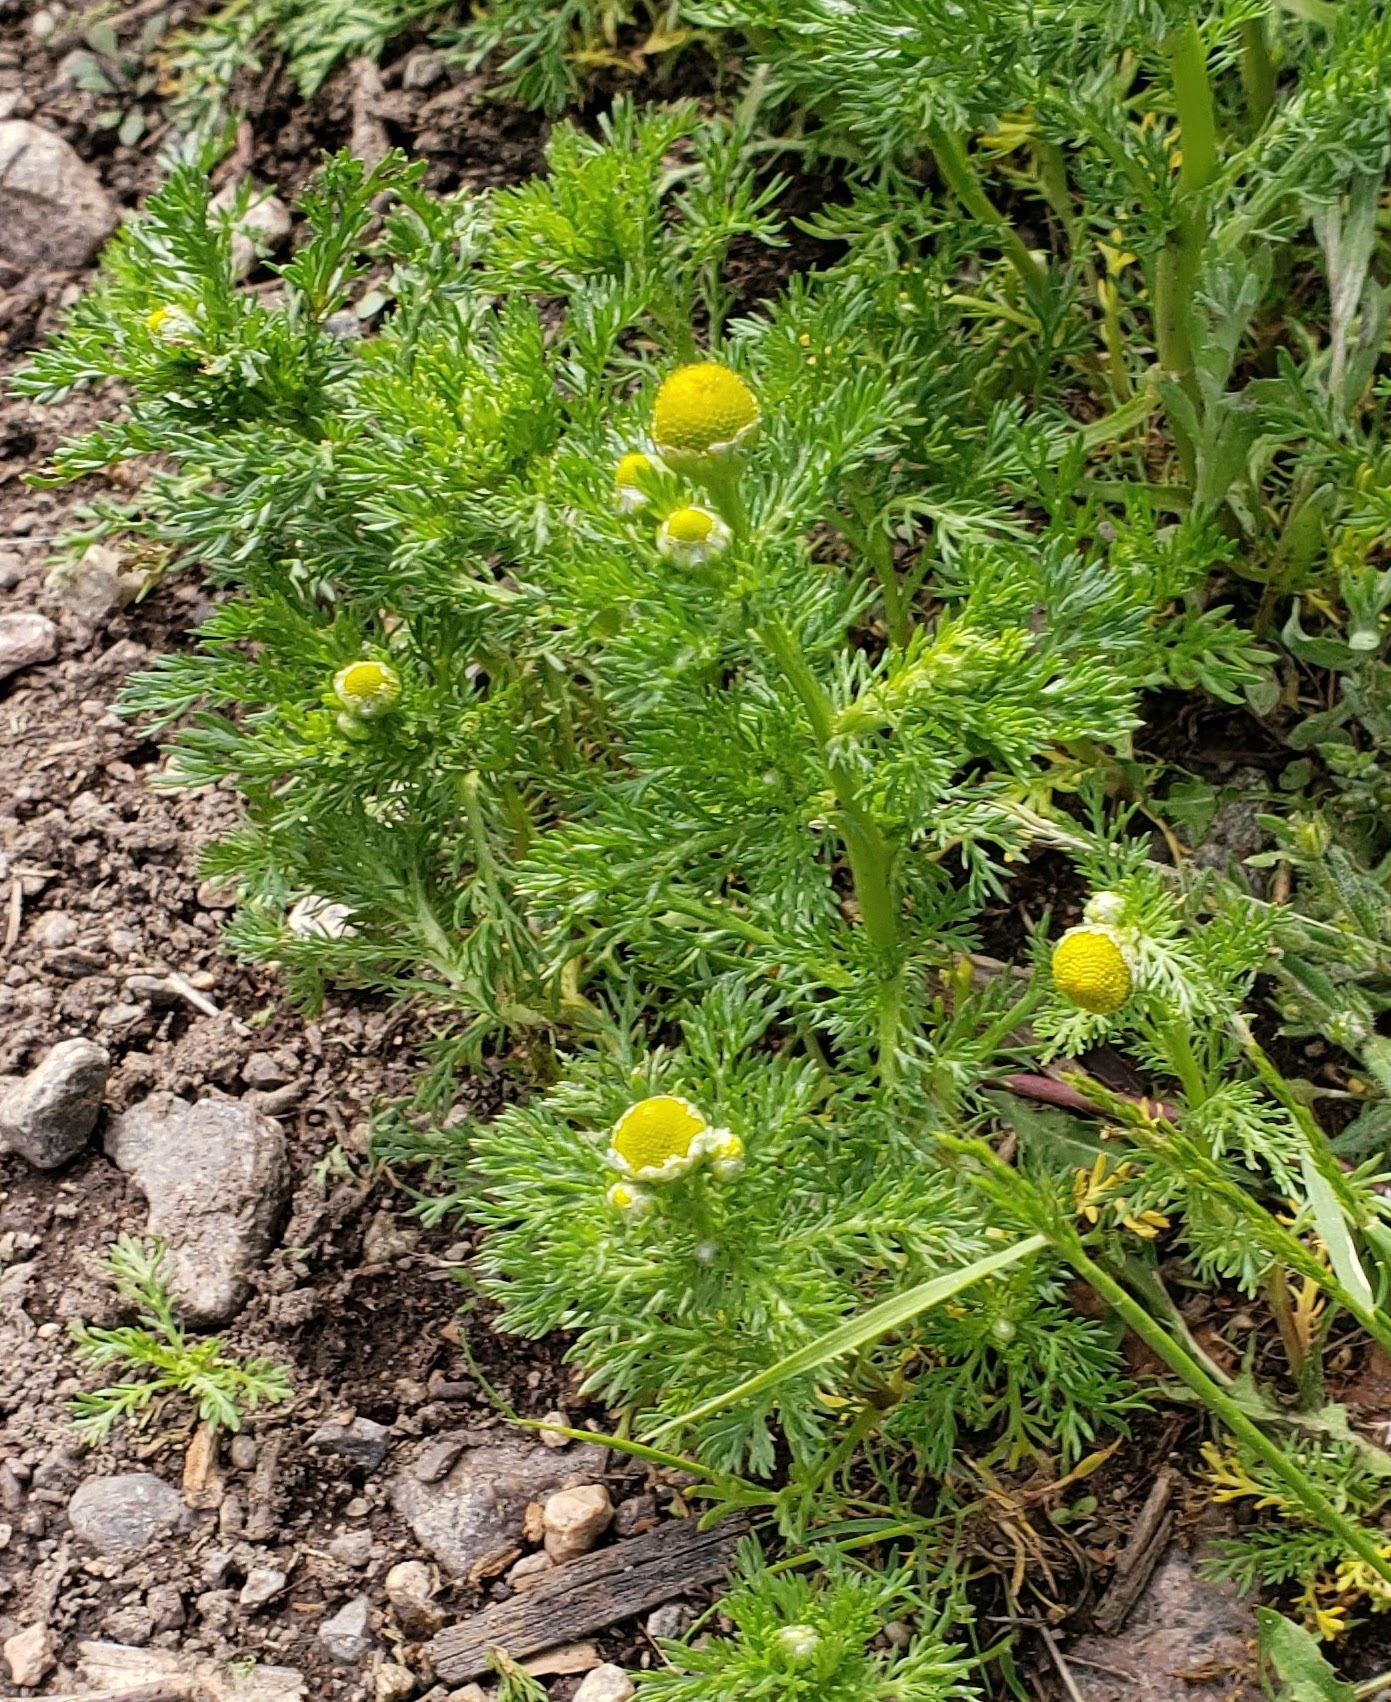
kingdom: Plantae
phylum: Tracheophyta
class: Magnoliopsida
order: Asterales
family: Asteraceae
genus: Matricaria
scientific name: Matricaria discoidea
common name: Disc mayweed
